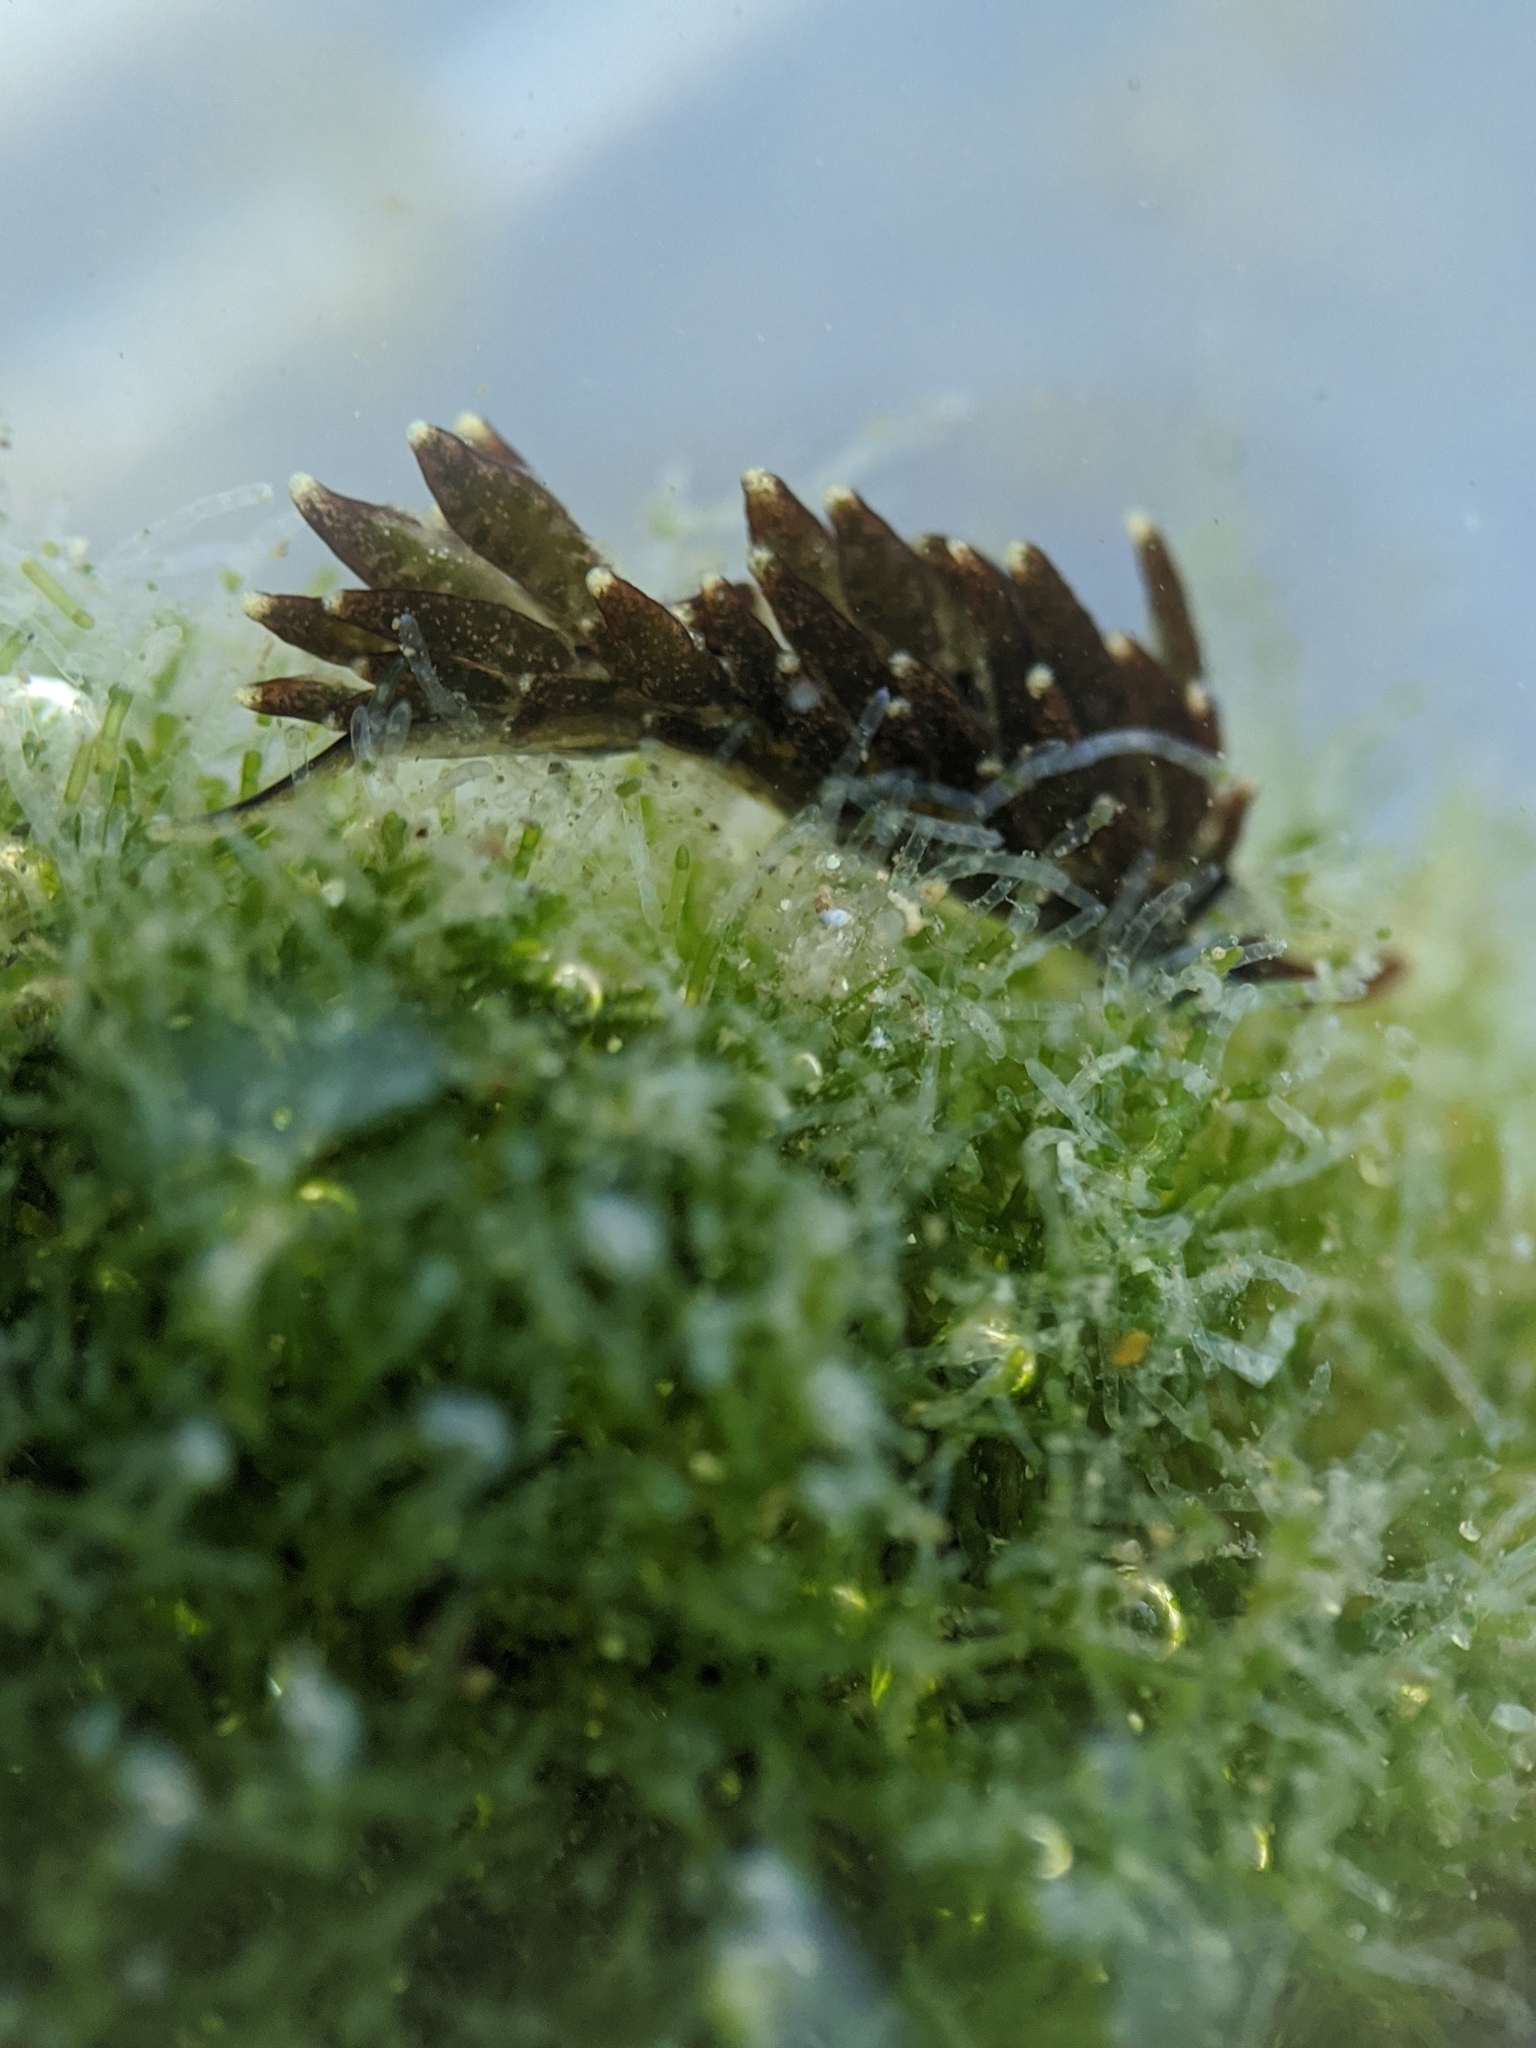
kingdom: Animalia
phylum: Mollusca
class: Gastropoda
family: Hermaeidae
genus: Aplysiopsis
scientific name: Aplysiopsis enteromorphae
